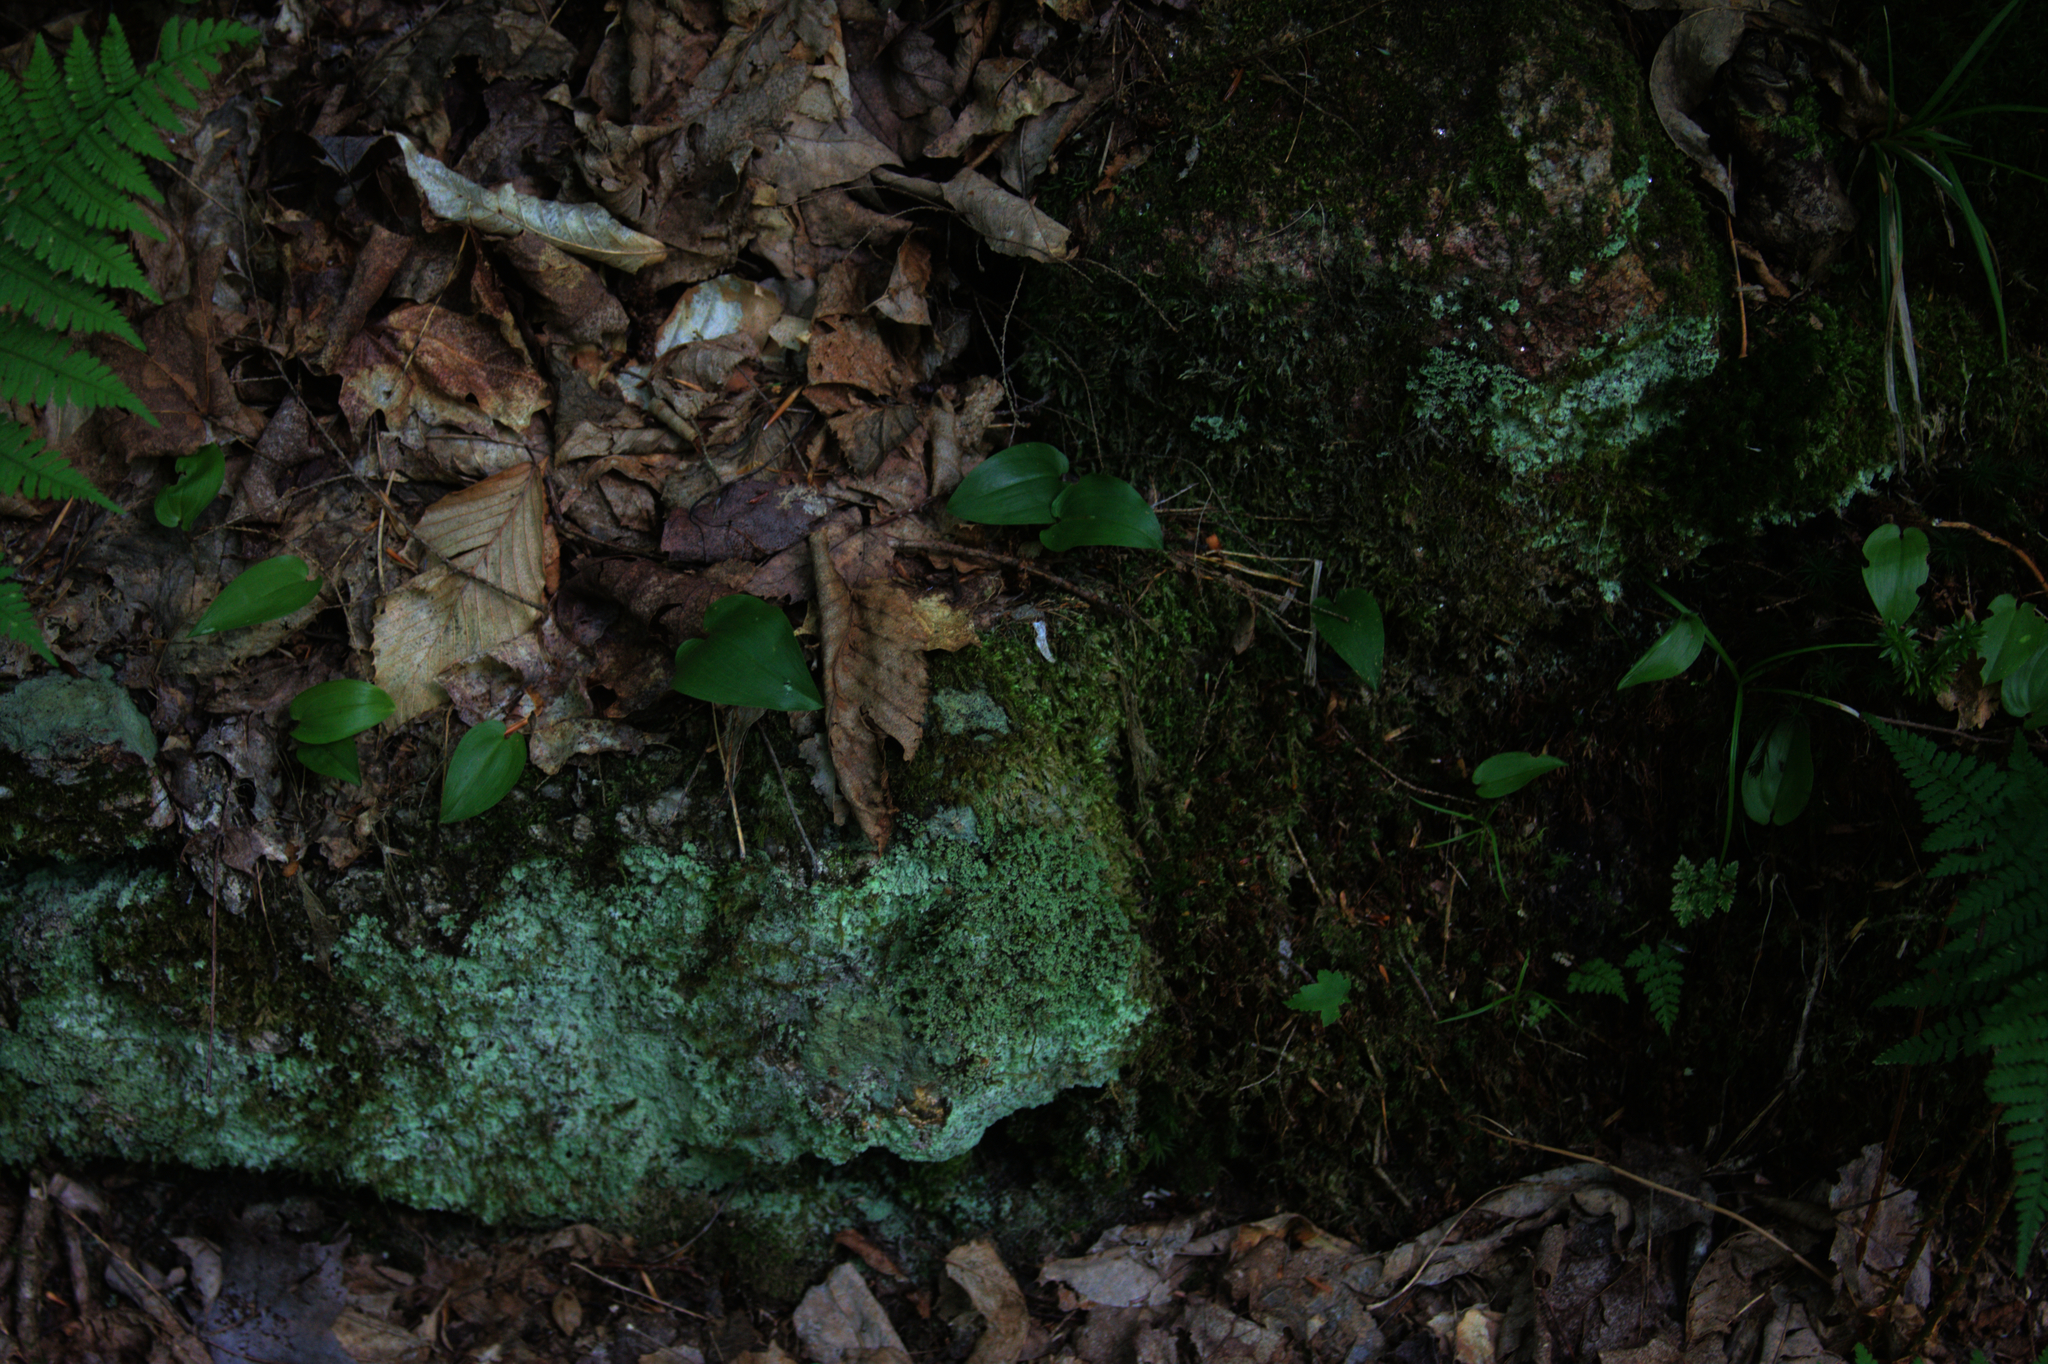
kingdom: Plantae
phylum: Tracheophyta
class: Liliopsida
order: Asparagales
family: Asparagaceae
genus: Maianthemum
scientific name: Maianthemum canadense
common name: False lily-of-the-valley
